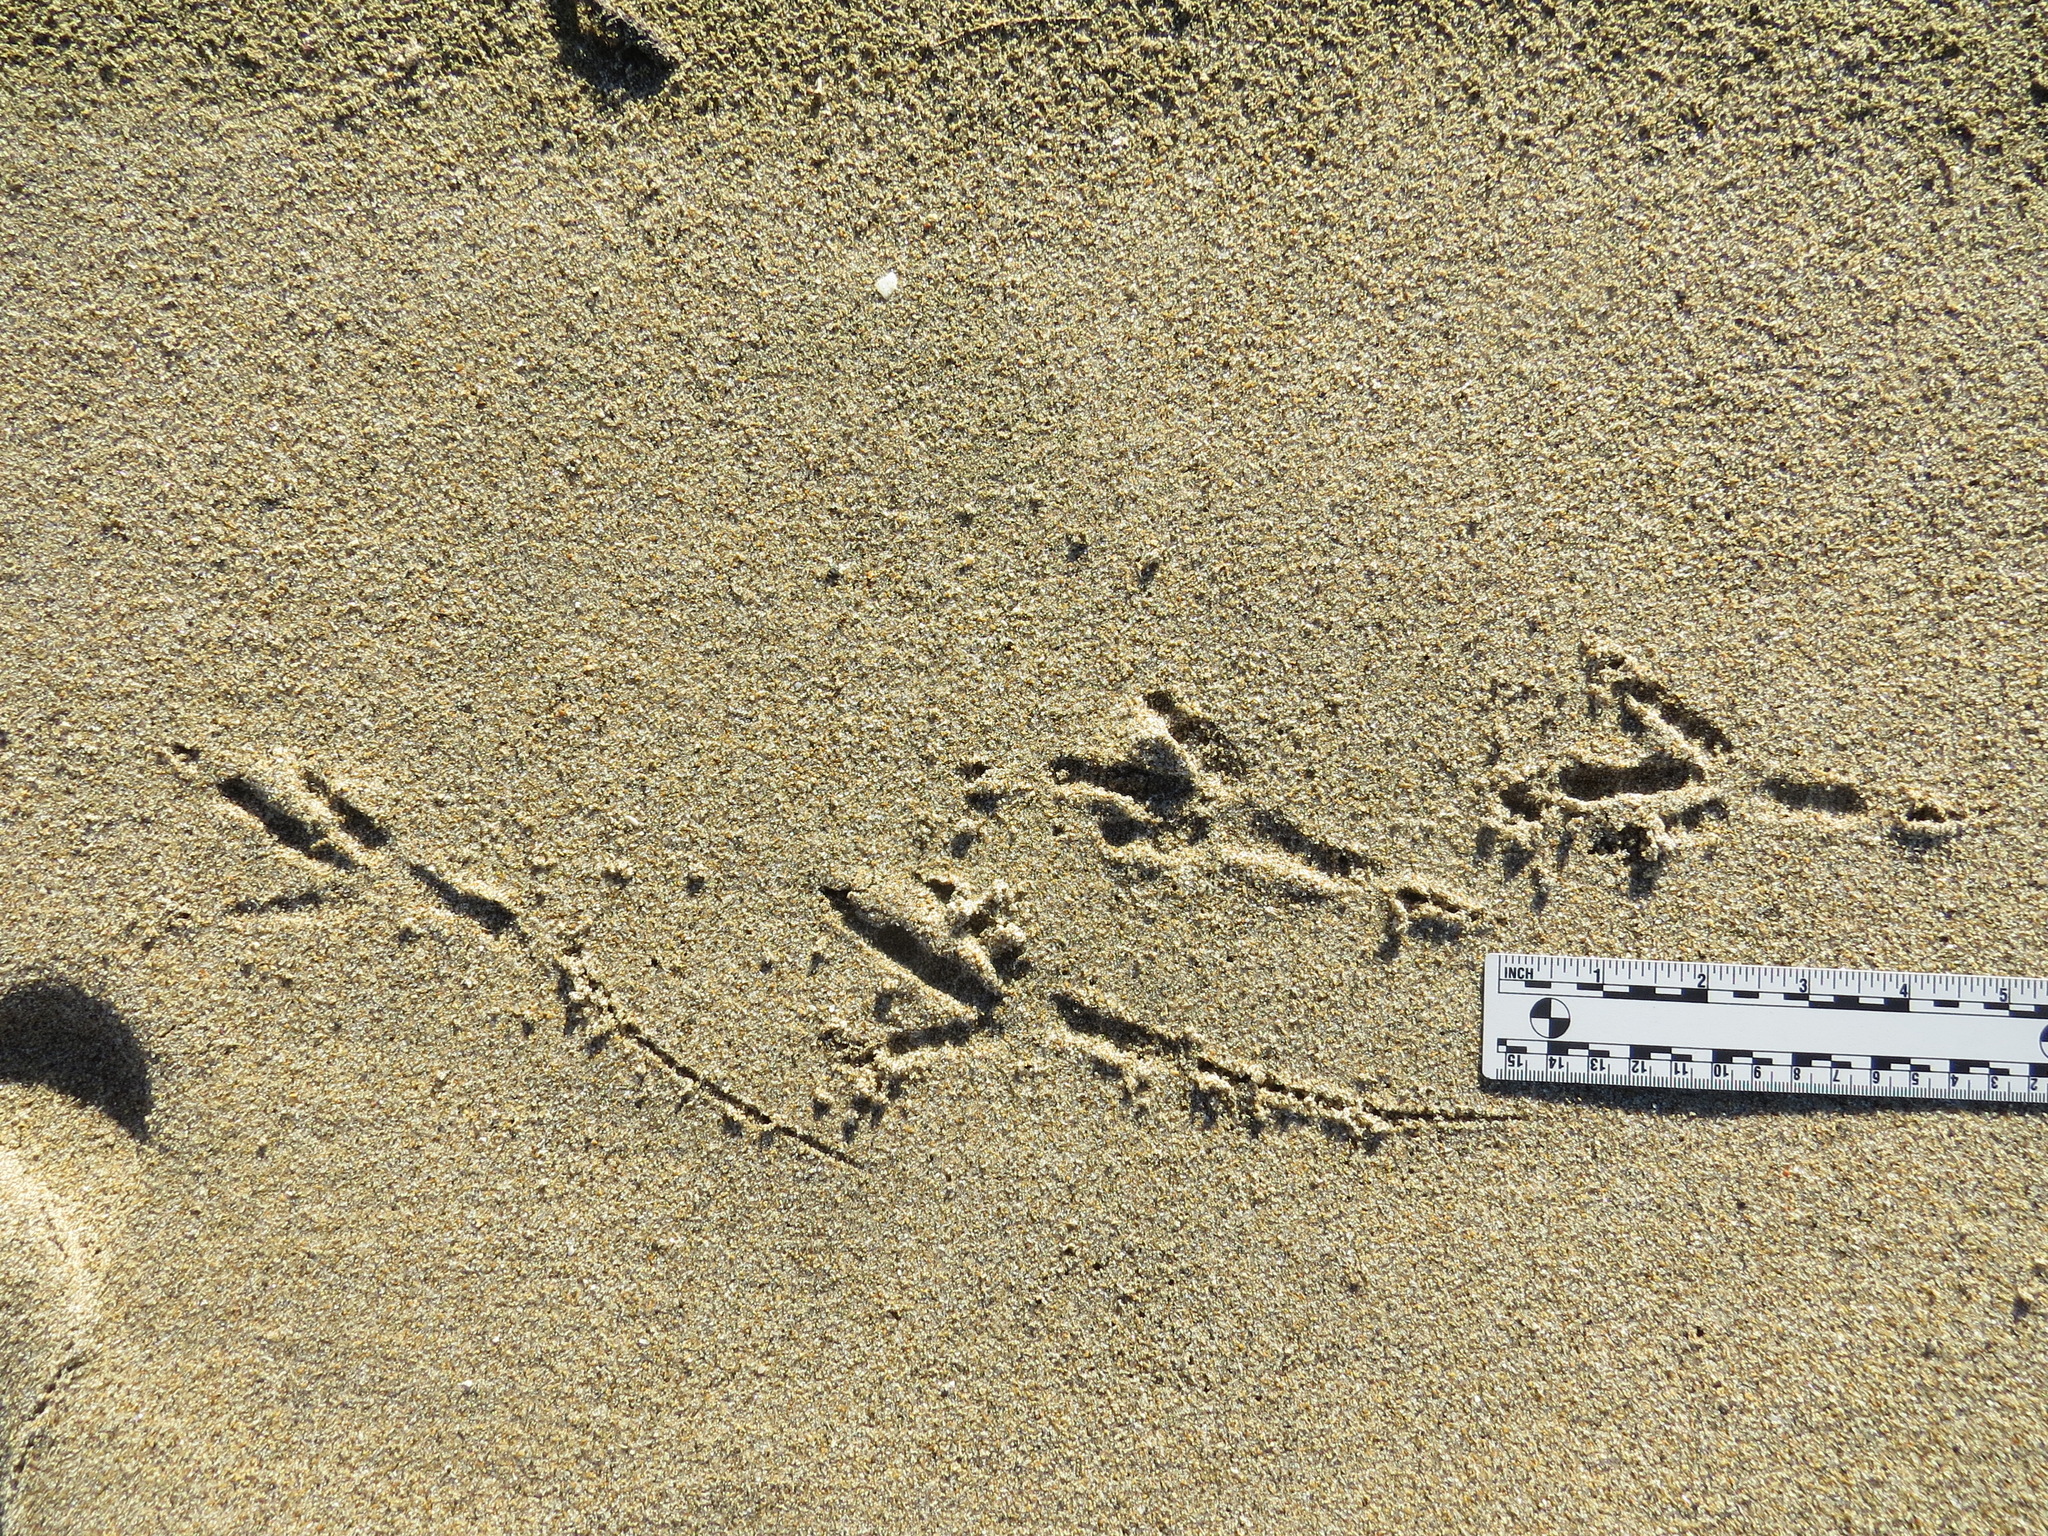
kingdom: Animalia
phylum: Chordata
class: Aves
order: Passeriformes
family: Corvidae
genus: Corvus
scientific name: Corvus corax
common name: Common raven
